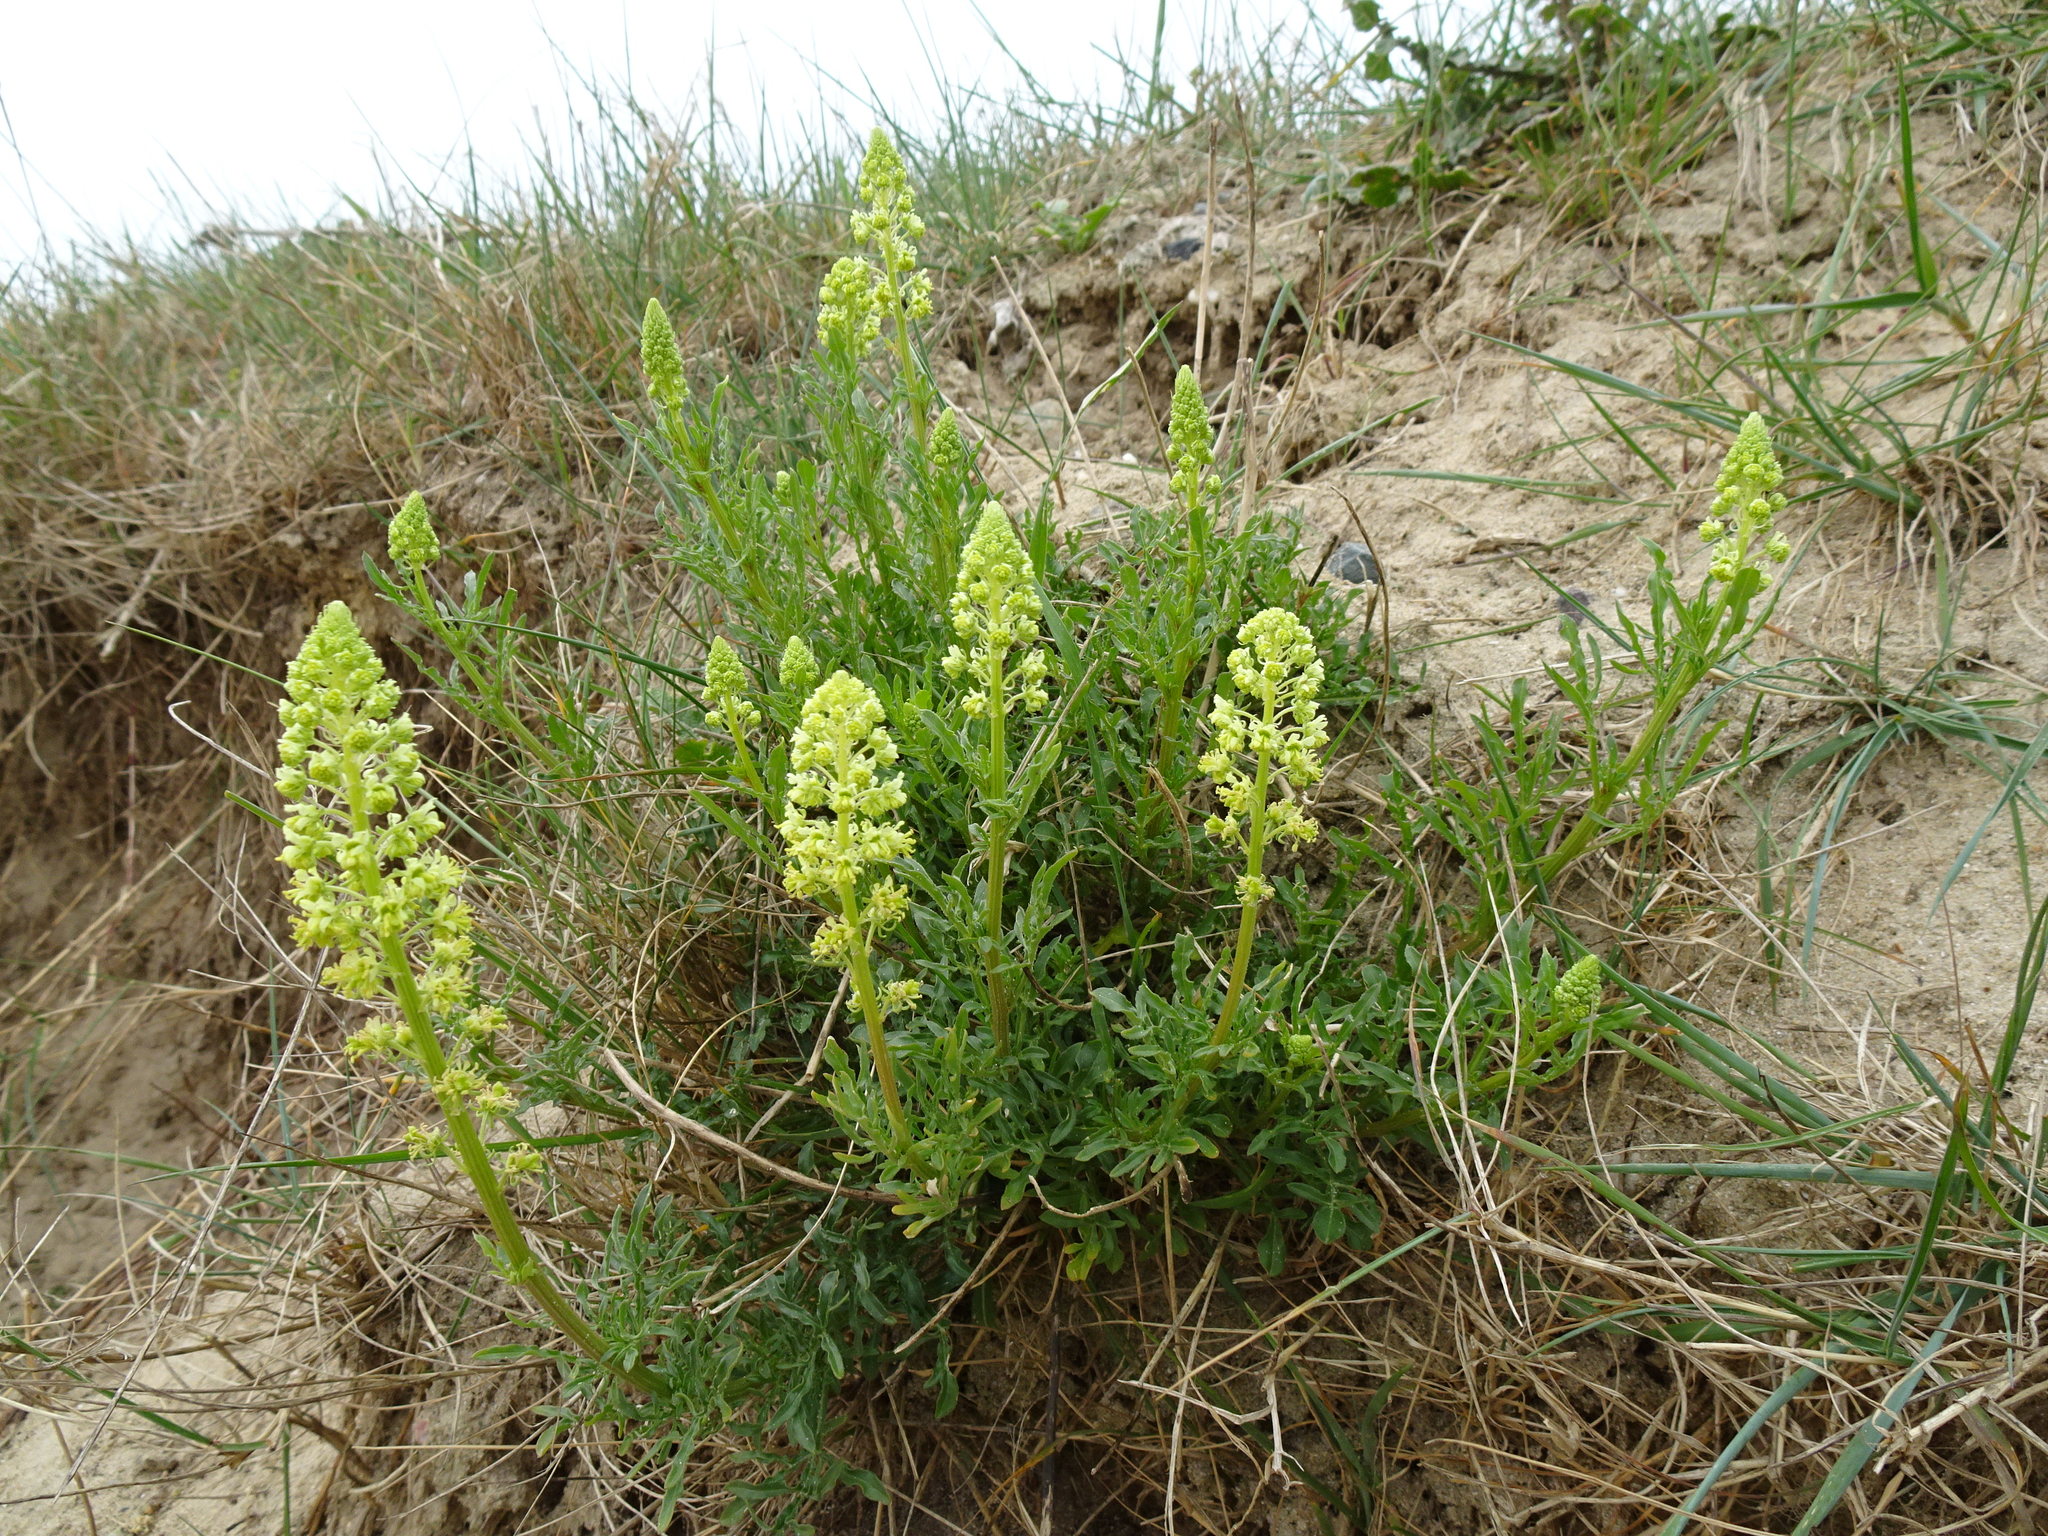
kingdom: Plantae
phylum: Tracheophyta
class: Magnoliopsida
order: Brassicales
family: Resedaceae
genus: Reseda
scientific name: Reseda lutea
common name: Wild mignonette
